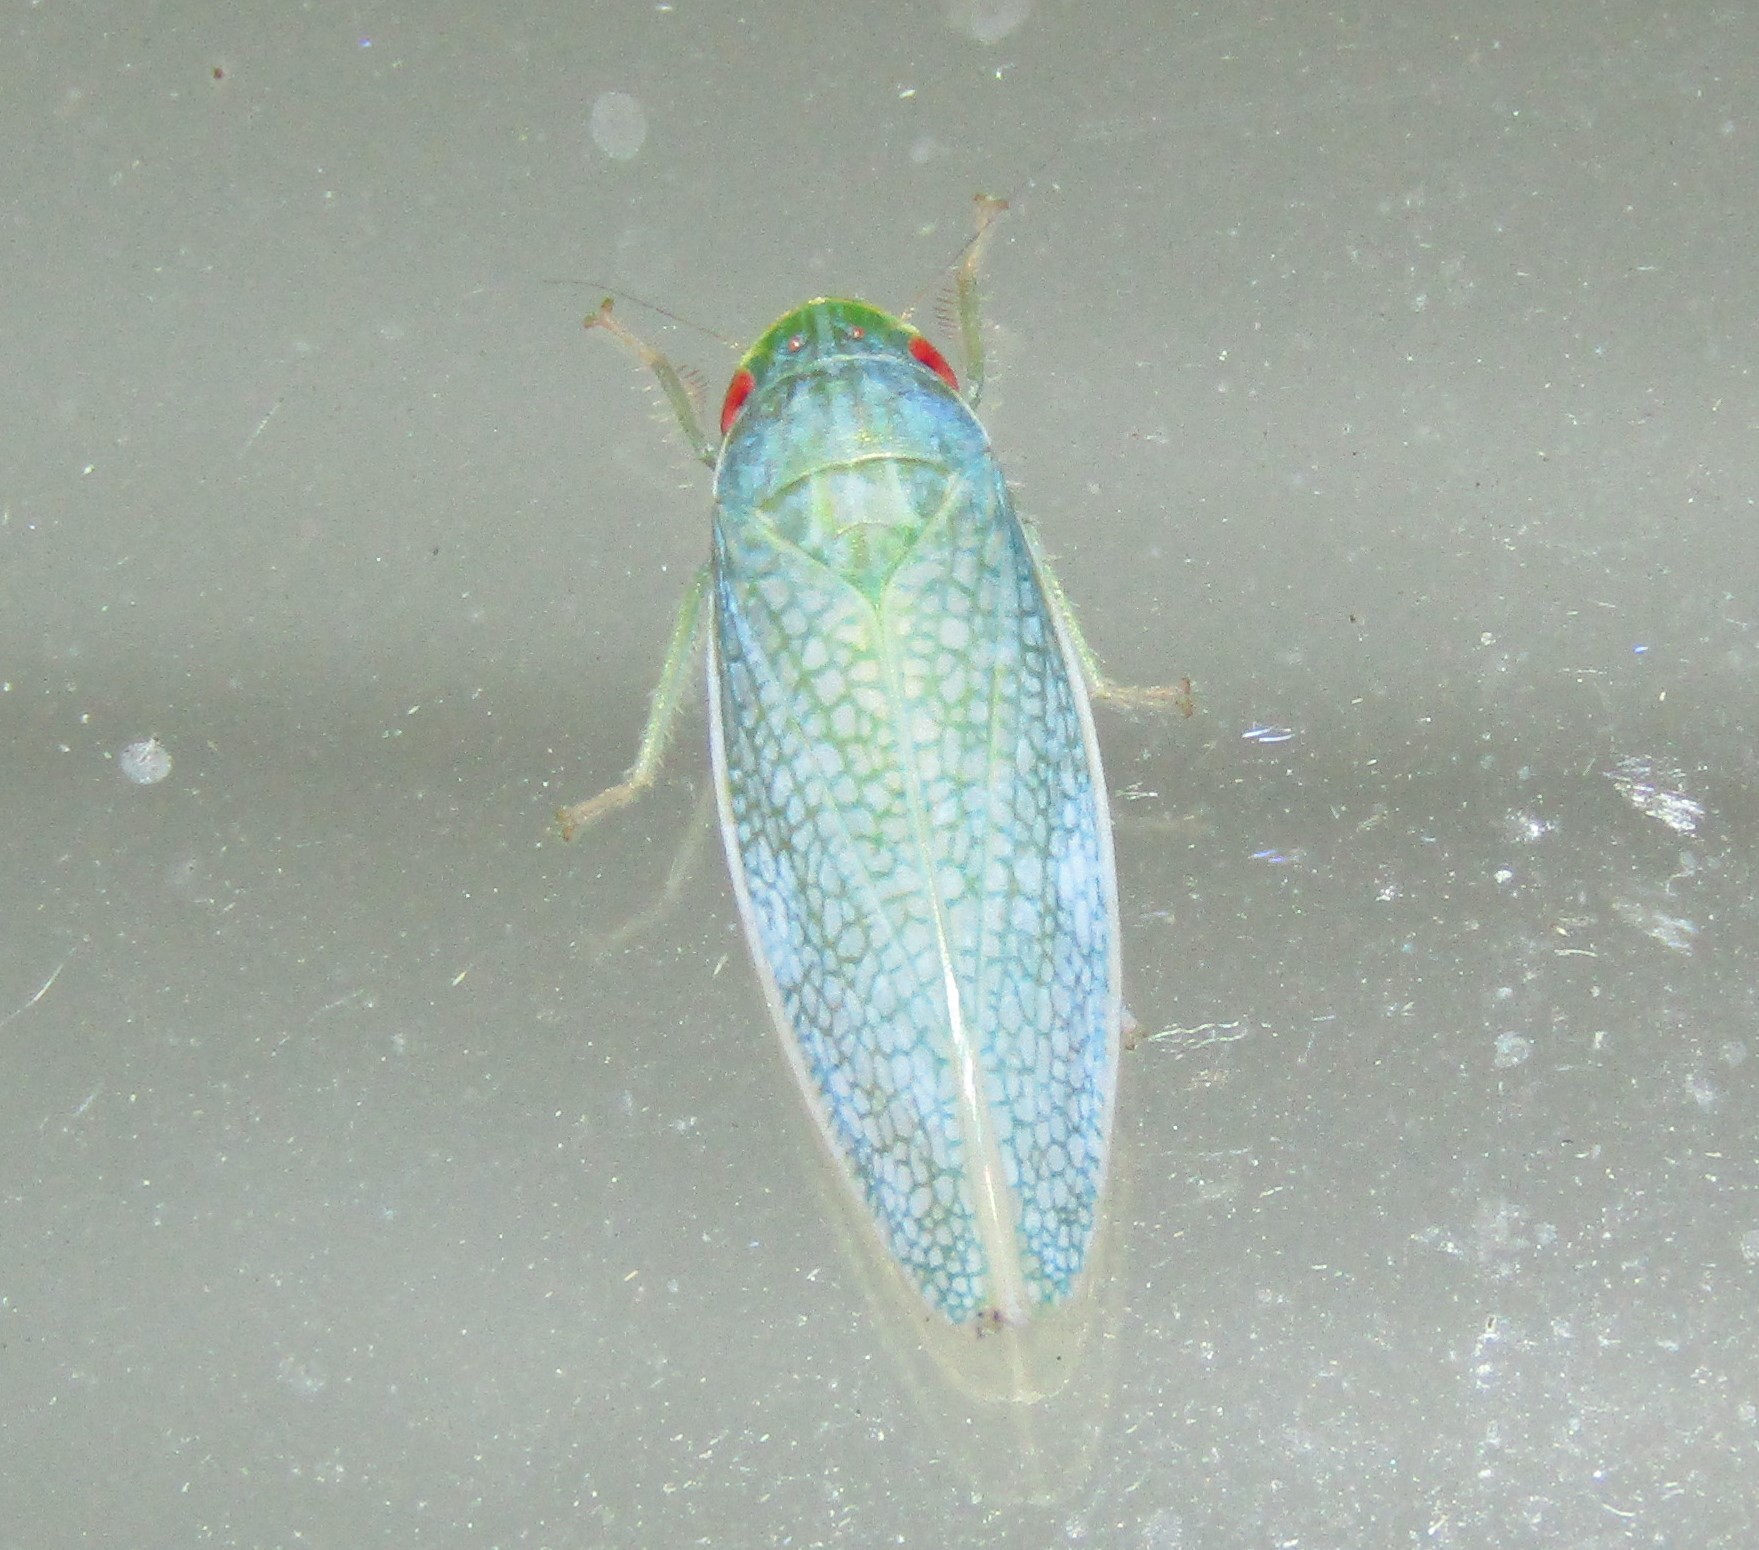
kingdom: Animalia
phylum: Arthropoda
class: Insecta
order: Hemiptera
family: Cicadellidae
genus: Gyponana
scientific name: Gyponana procera
